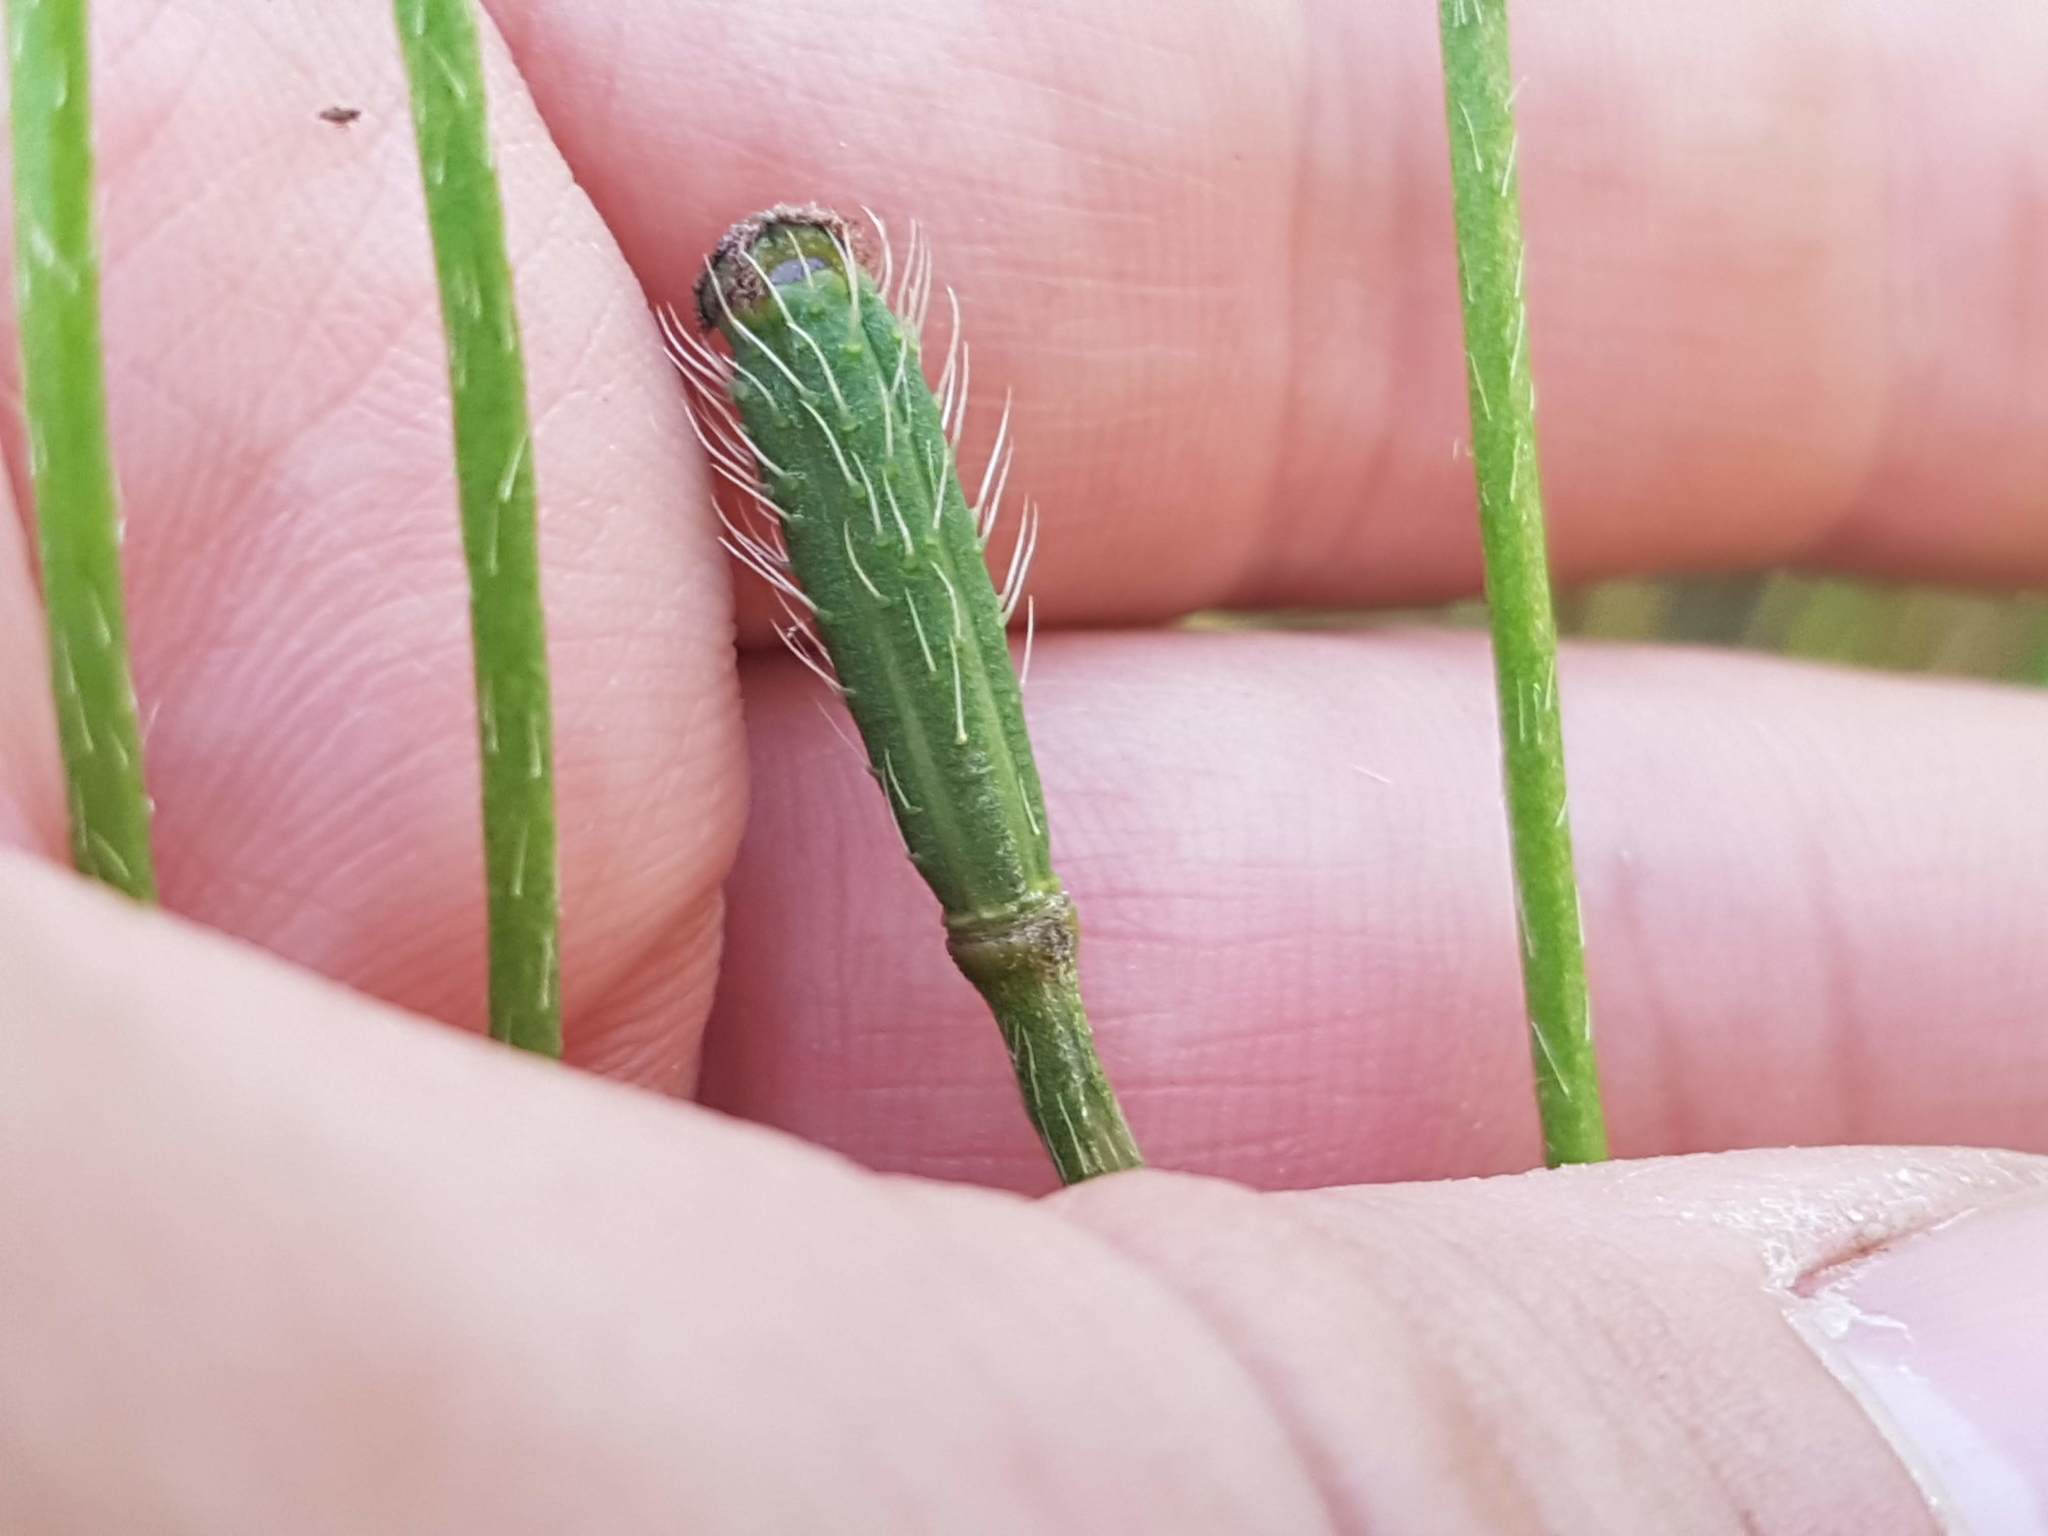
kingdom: Plantae
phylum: Tracheophyta
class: Magnoliopsida
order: Ranunculales
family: Papaveraceae
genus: Roemeria
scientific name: Roemeria argemone
